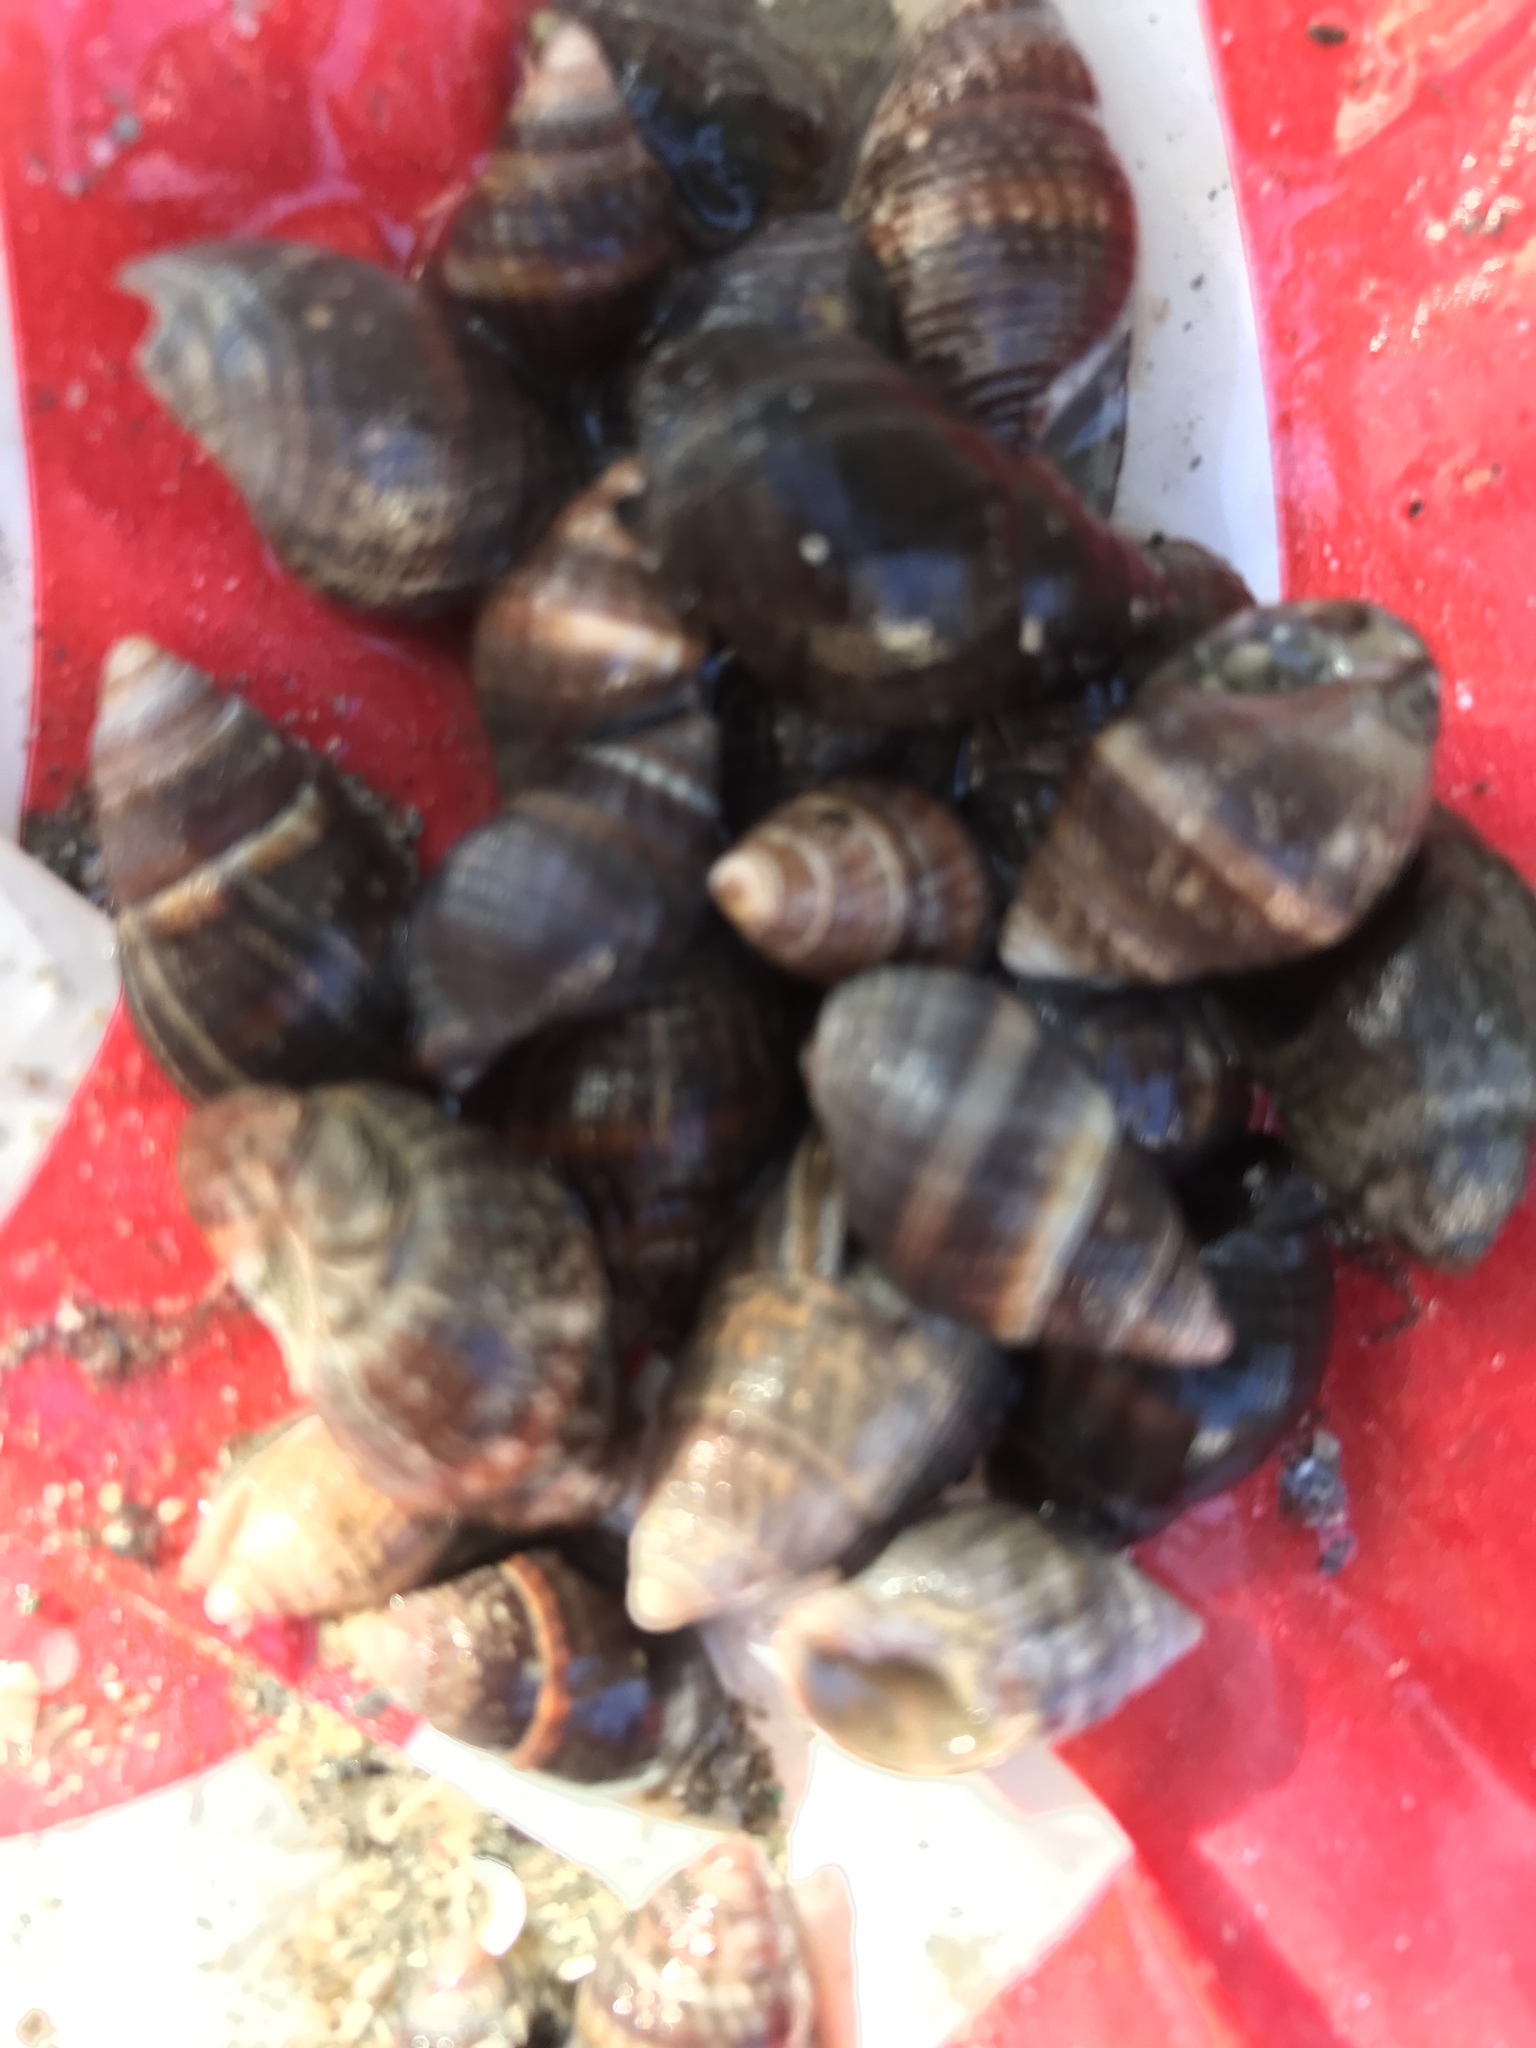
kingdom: Animalia
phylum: Mollusca
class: Gastropoda
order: Neogastropoda
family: Nassariidae
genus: Ilyanassa
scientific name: Ilyanassa obsoleta
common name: Eastern mudsnail
